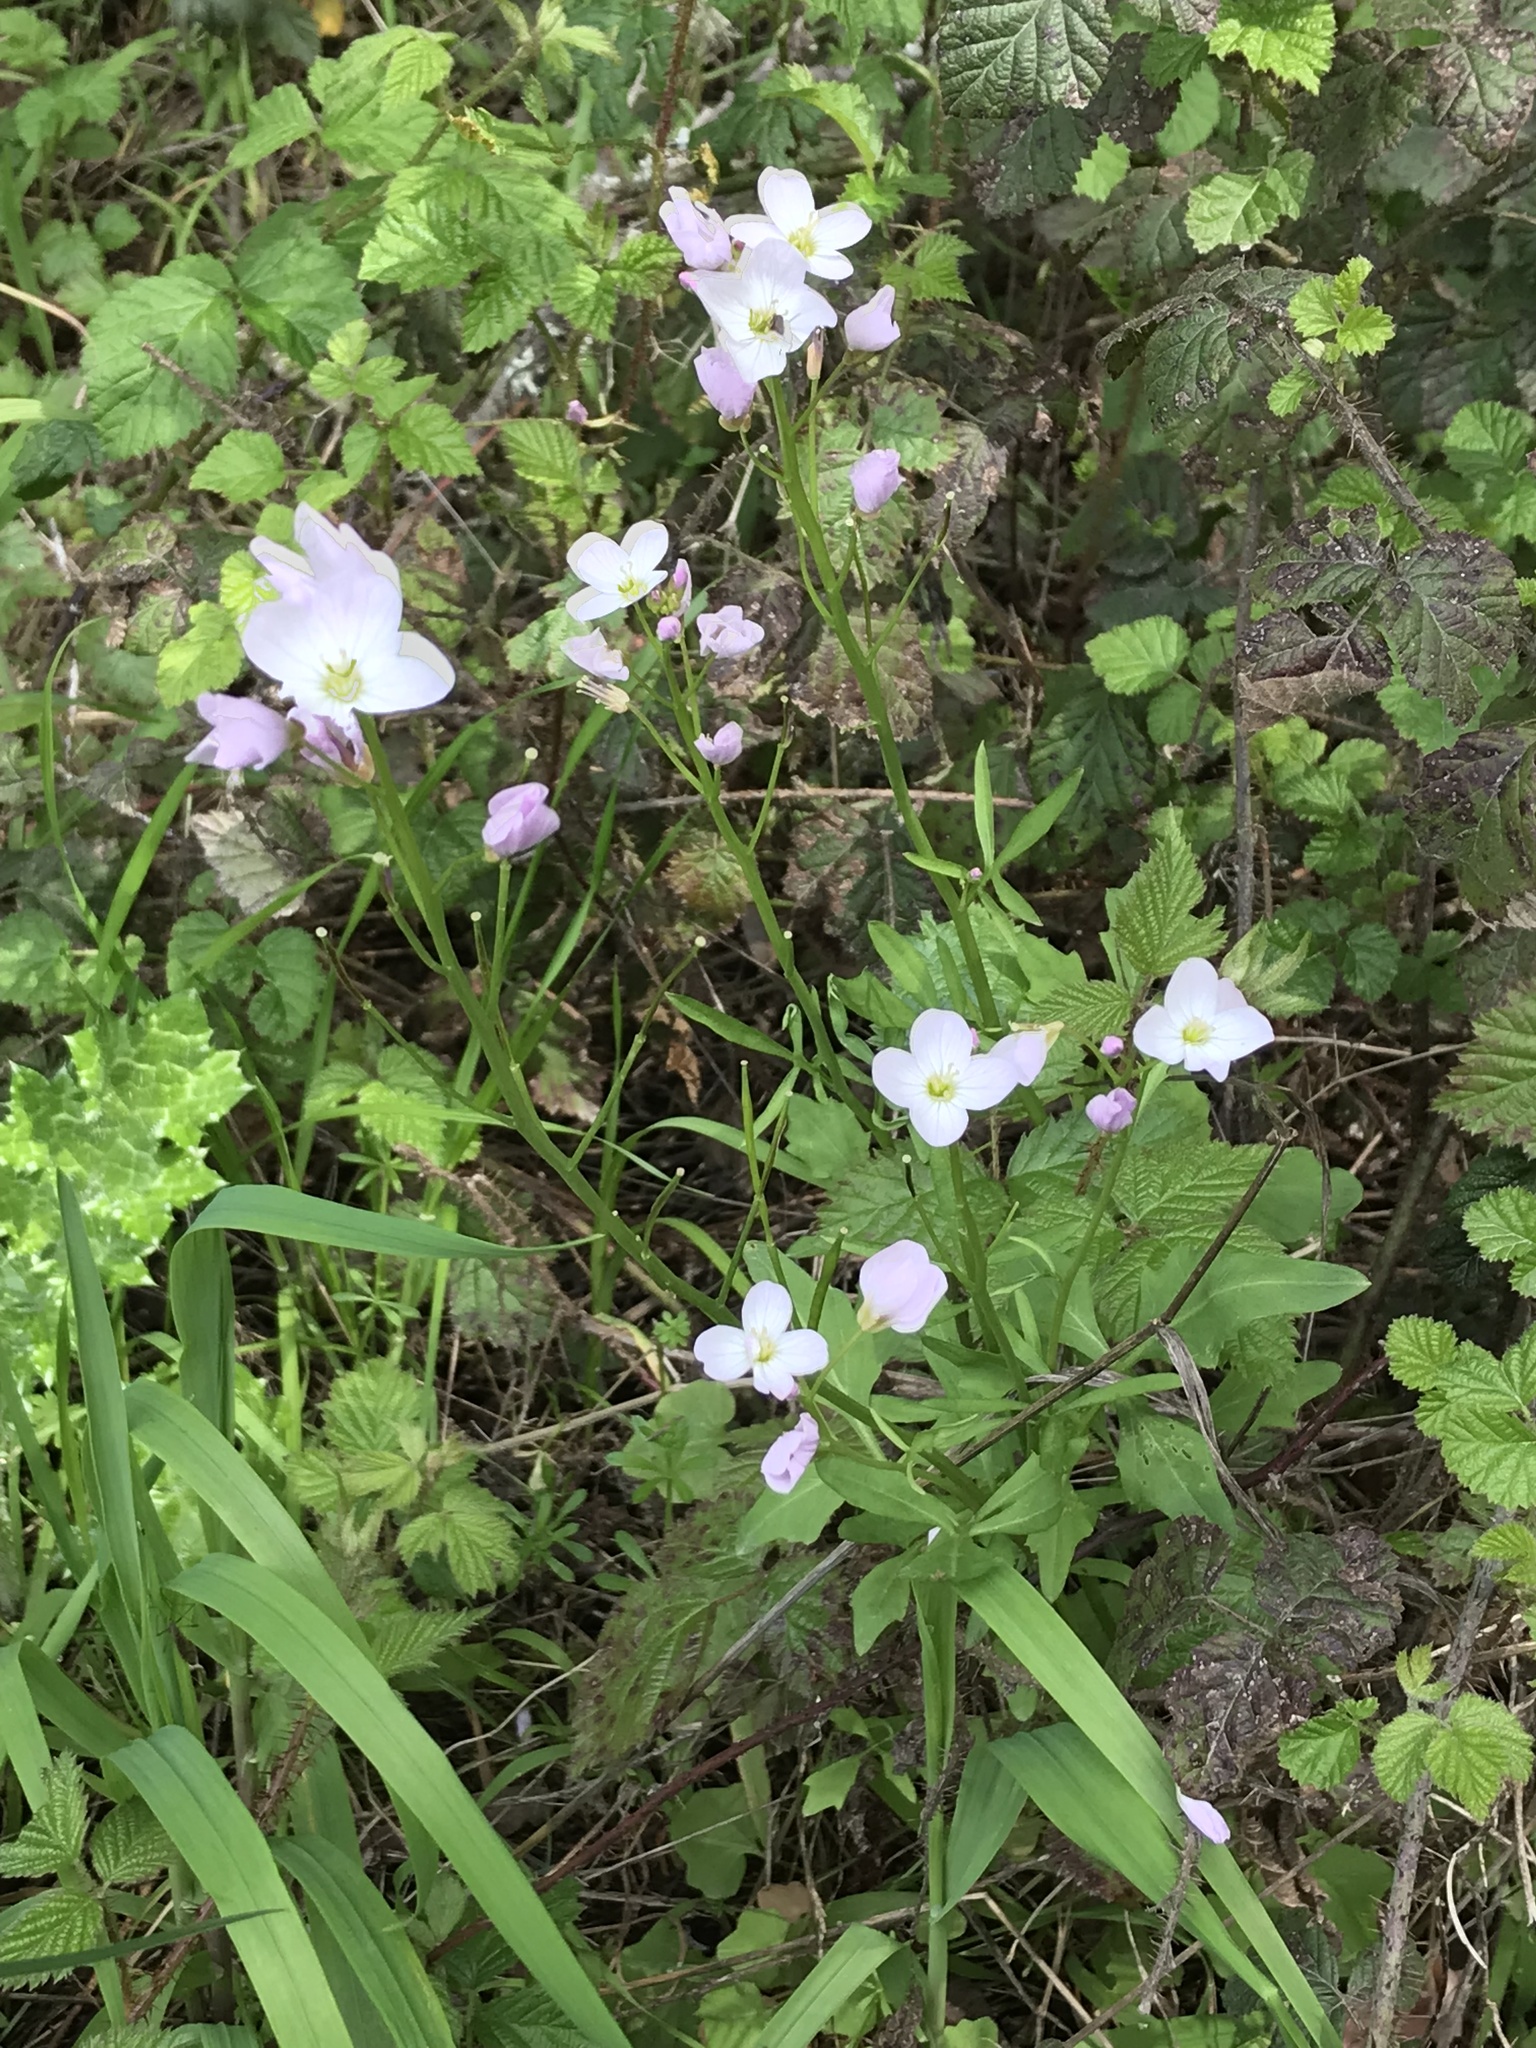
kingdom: Plantae
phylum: Tracheophyta
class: Magnoliopsida
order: Brassicales
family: Brassicaceae
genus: Cardamine
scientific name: Cardamine californica
